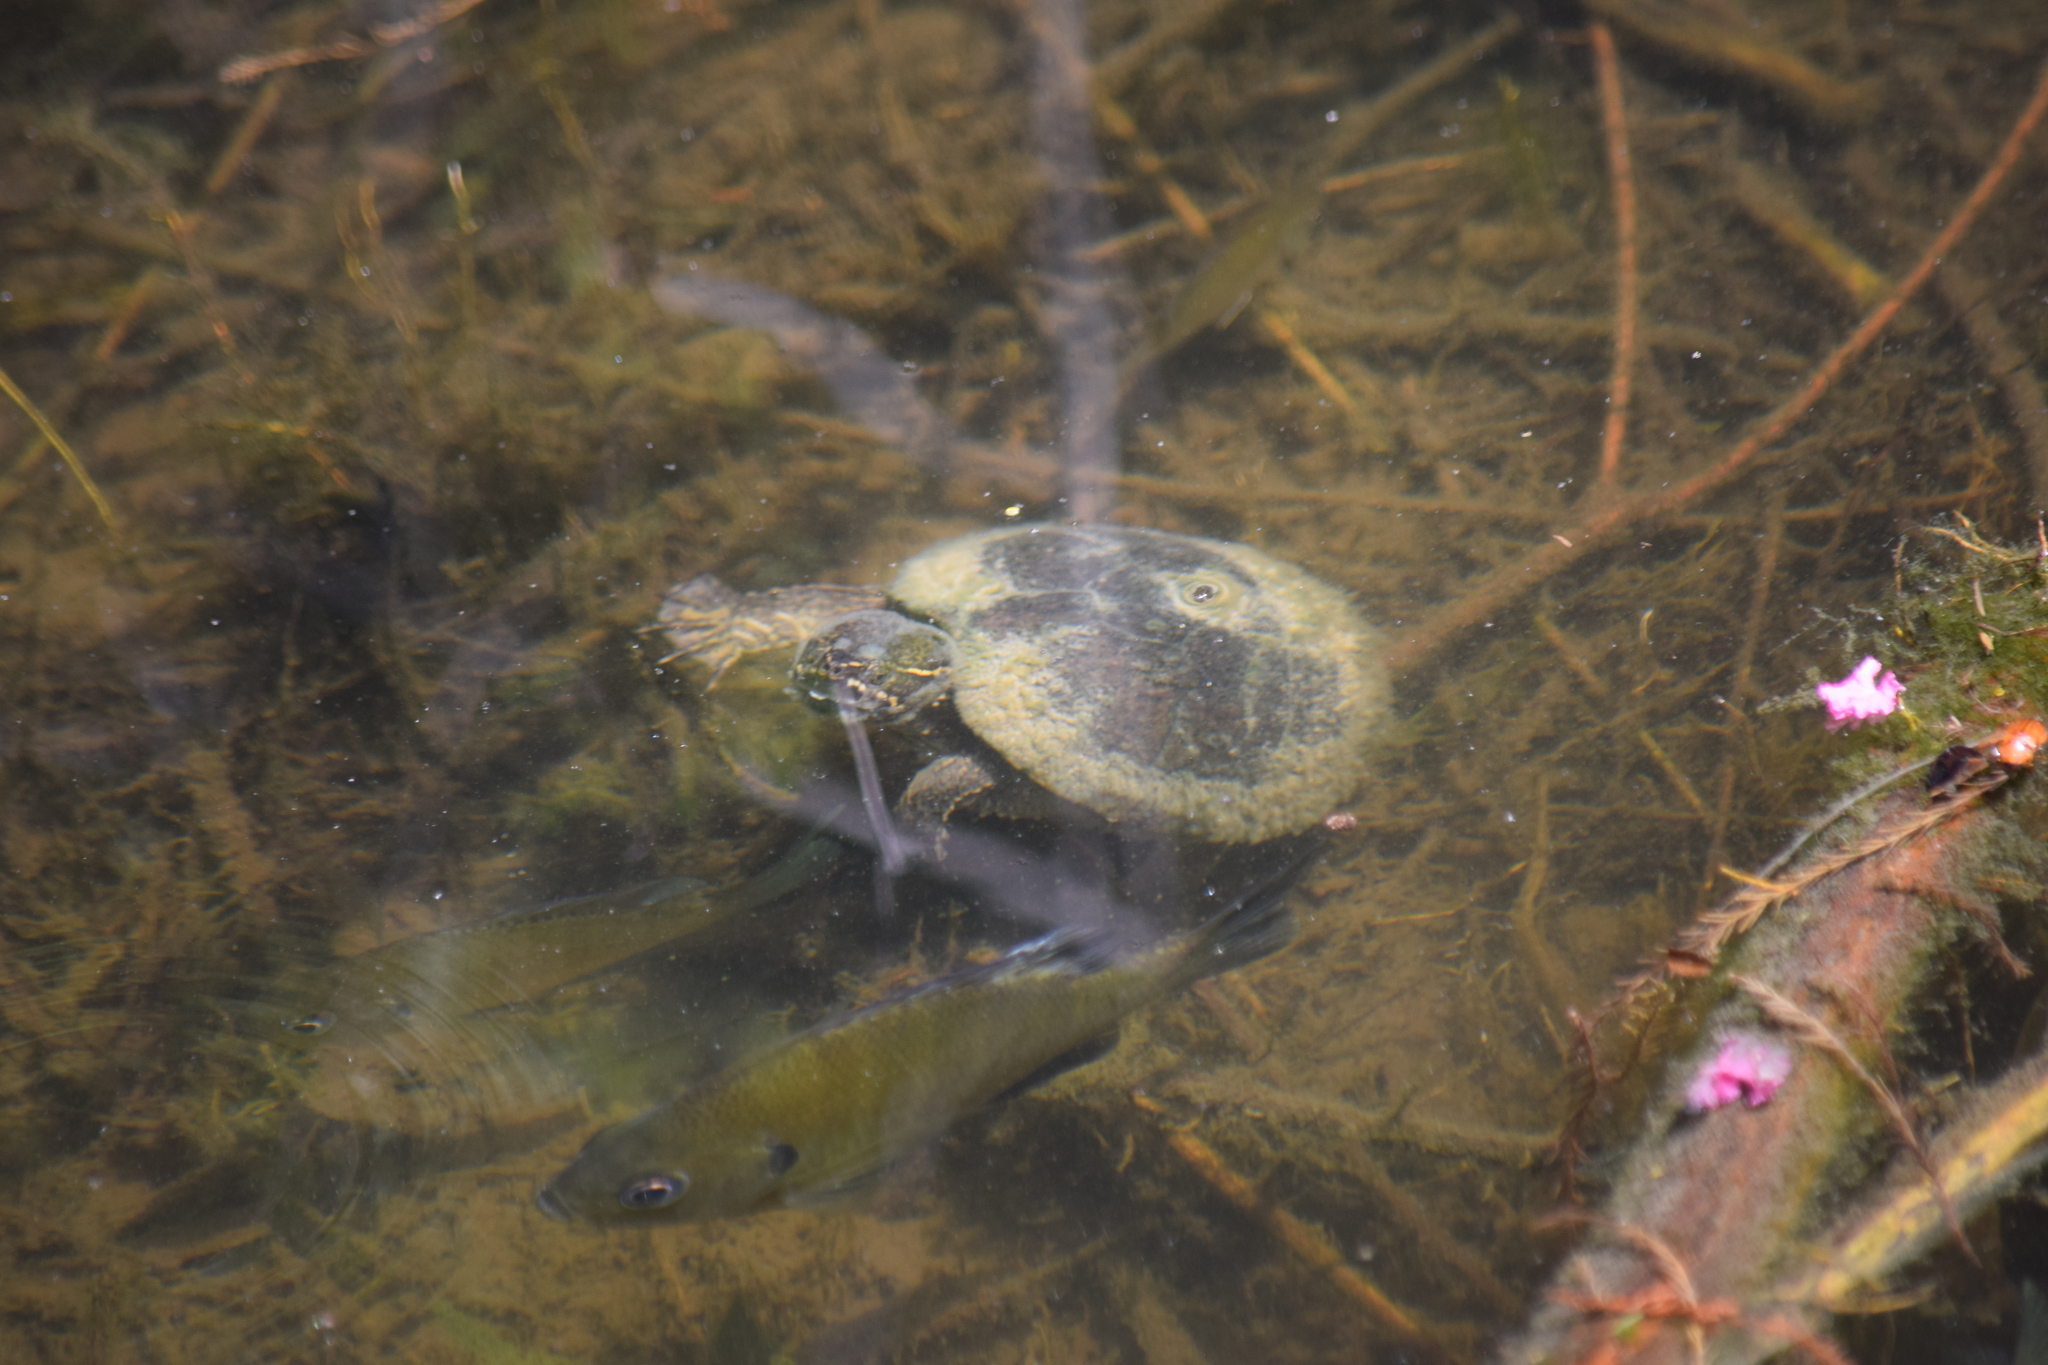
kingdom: Animalia
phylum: Chordata
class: Testudines
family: Kinosternidae
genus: Sternotherus
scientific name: Sternotherus odoratus
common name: Common musk turtle
